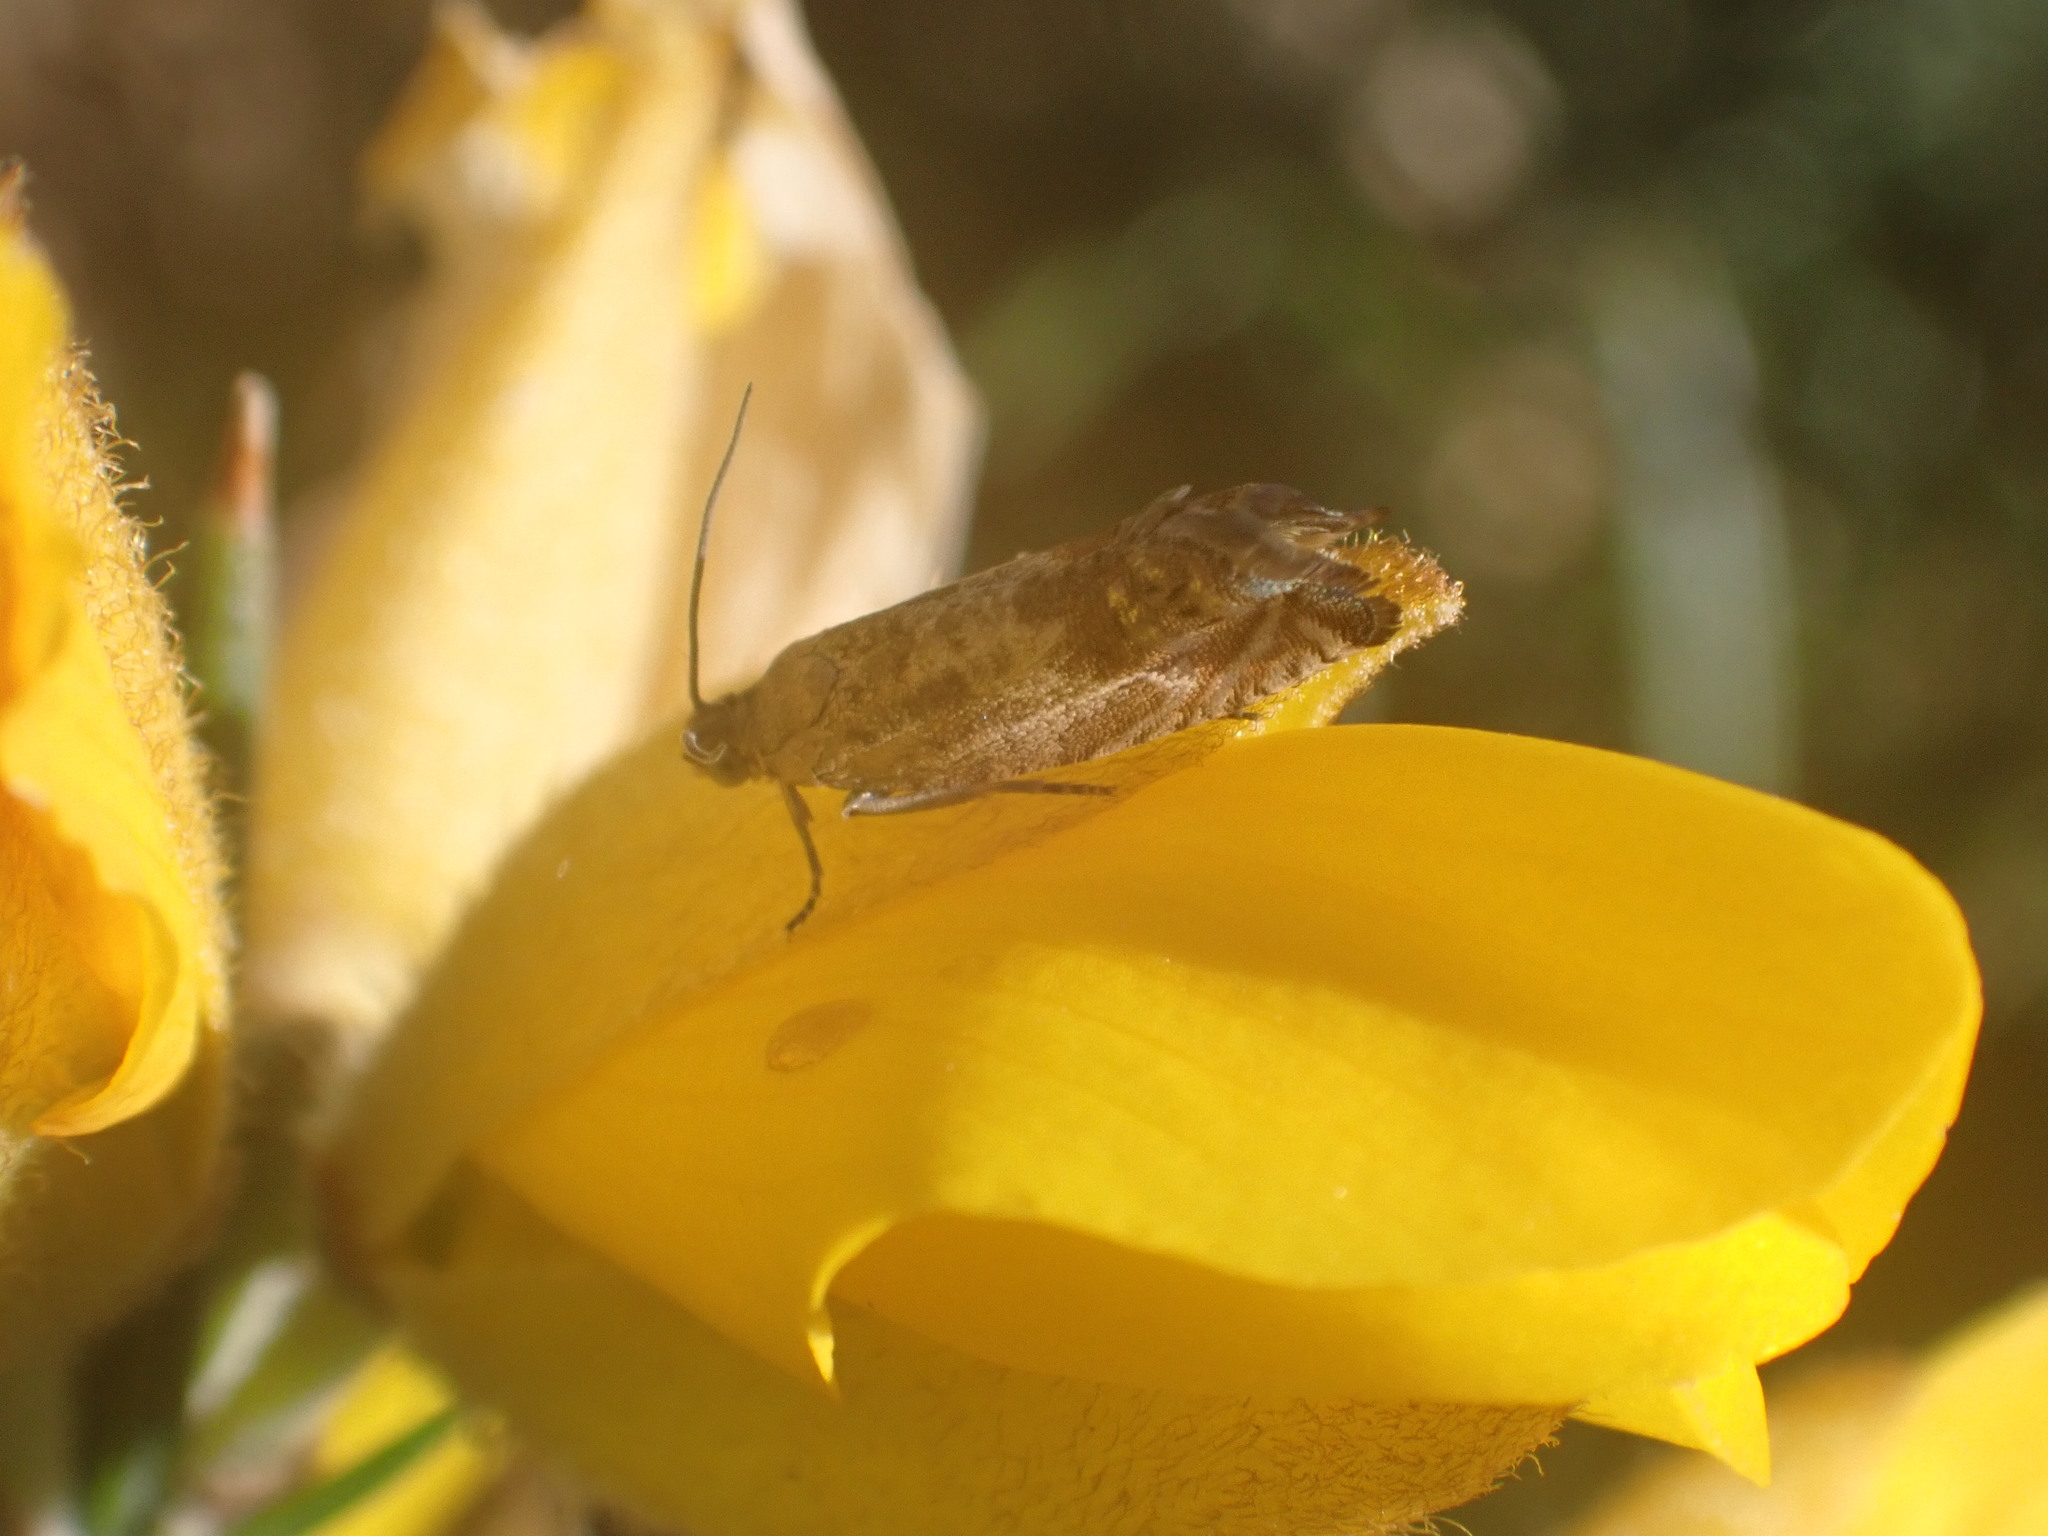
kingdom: Animalia
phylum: Arthropoda
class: Insecta
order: Lepidoptera
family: Tortricidae
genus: Cydia
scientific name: Cydia succedana
